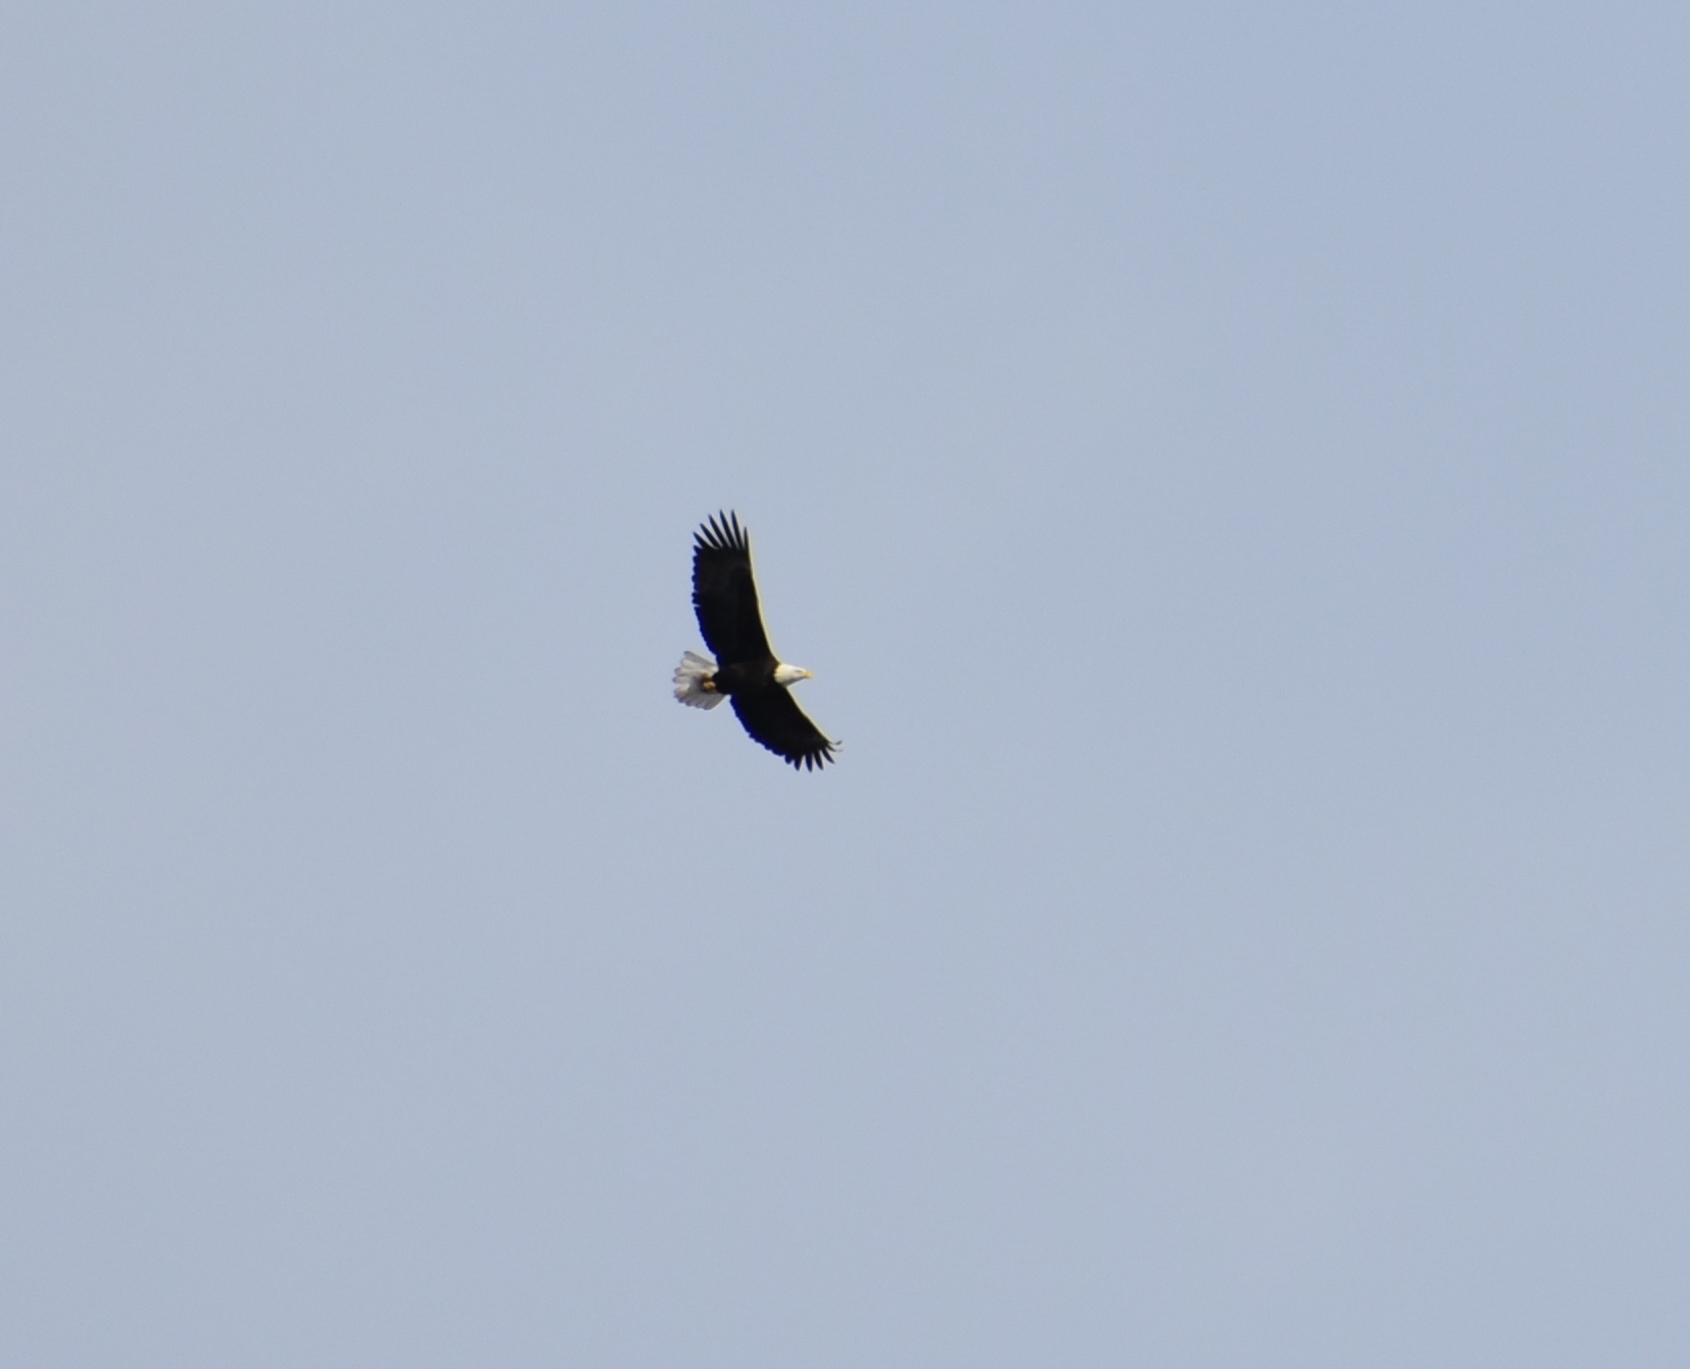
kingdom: Animalia
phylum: Chordata
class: Aves
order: Accipitriformes
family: Accipitridae
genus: Haliaeetus
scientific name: Haliaeetus leucocephalus
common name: Bald eagle
